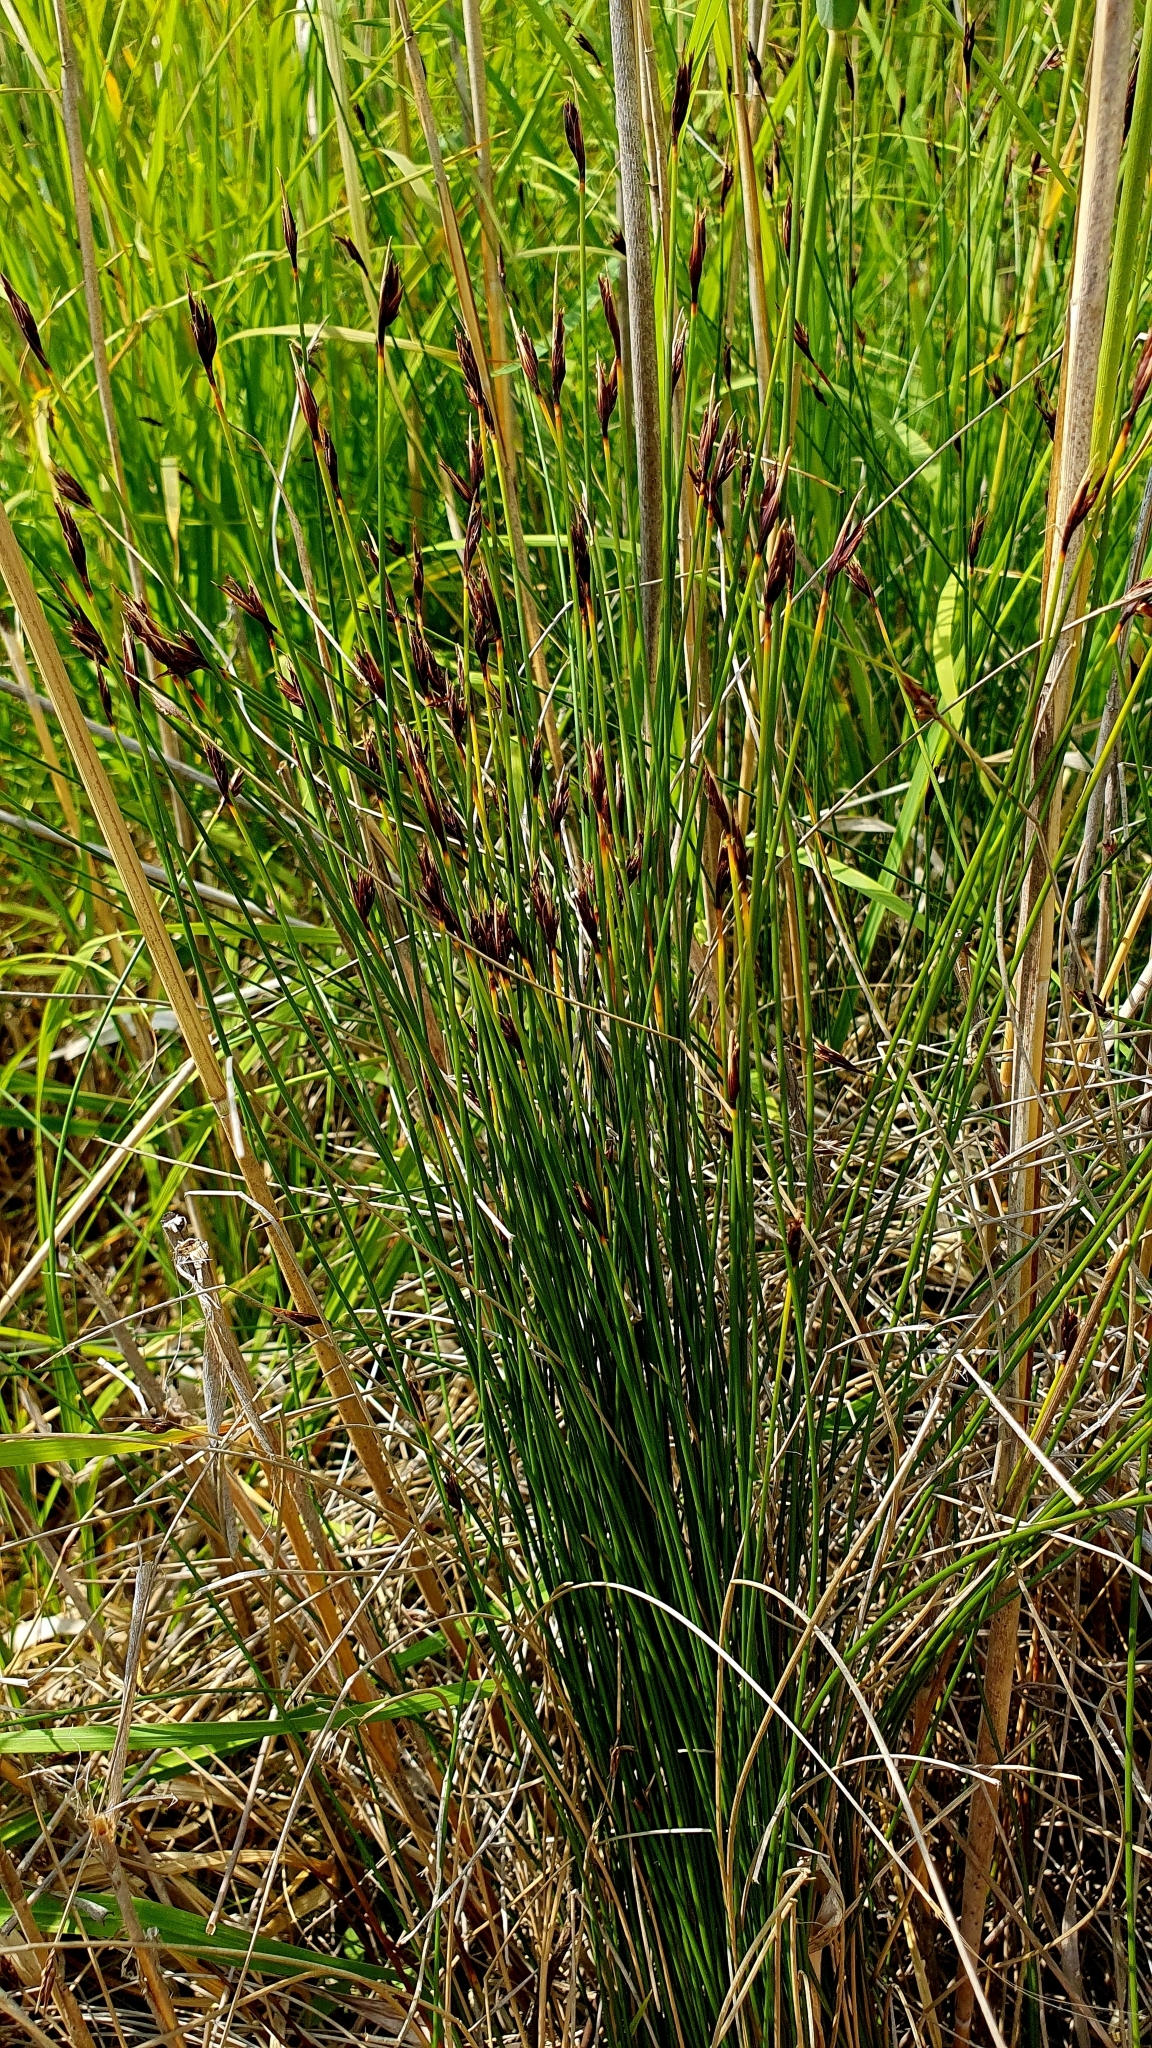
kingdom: Plantae
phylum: Tracheophyta
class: Liliopsida
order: Poales
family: Cyperaceae
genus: Schoenus
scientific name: Schoenus ferrugineus
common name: Brown bog-rush
